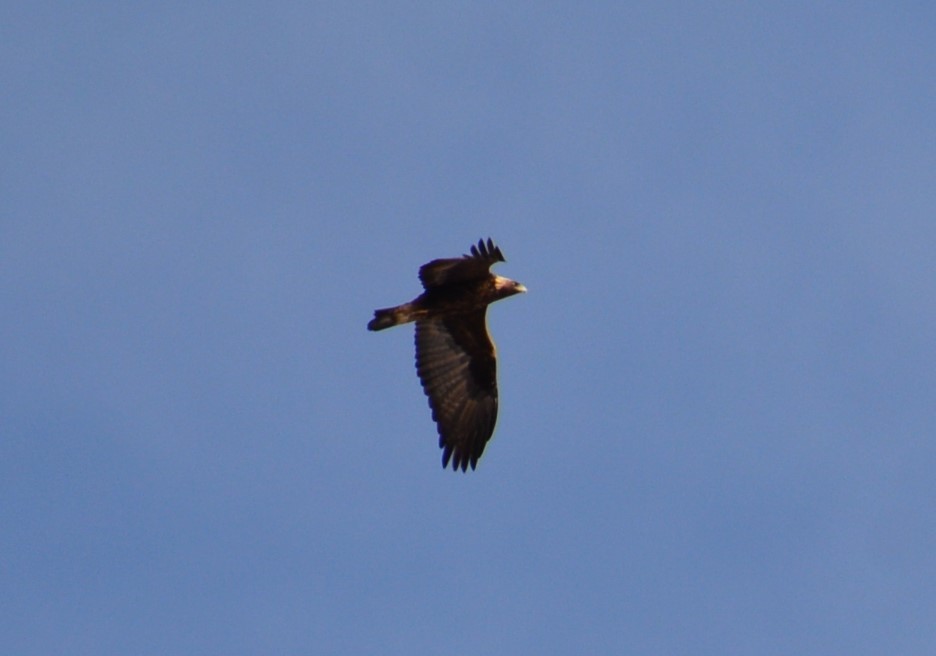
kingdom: Animalia
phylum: Chordata
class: Aves
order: Accipitriformes
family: Accipitridae
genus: Aquila
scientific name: Aquila chrysaetos
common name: Golden eagle
